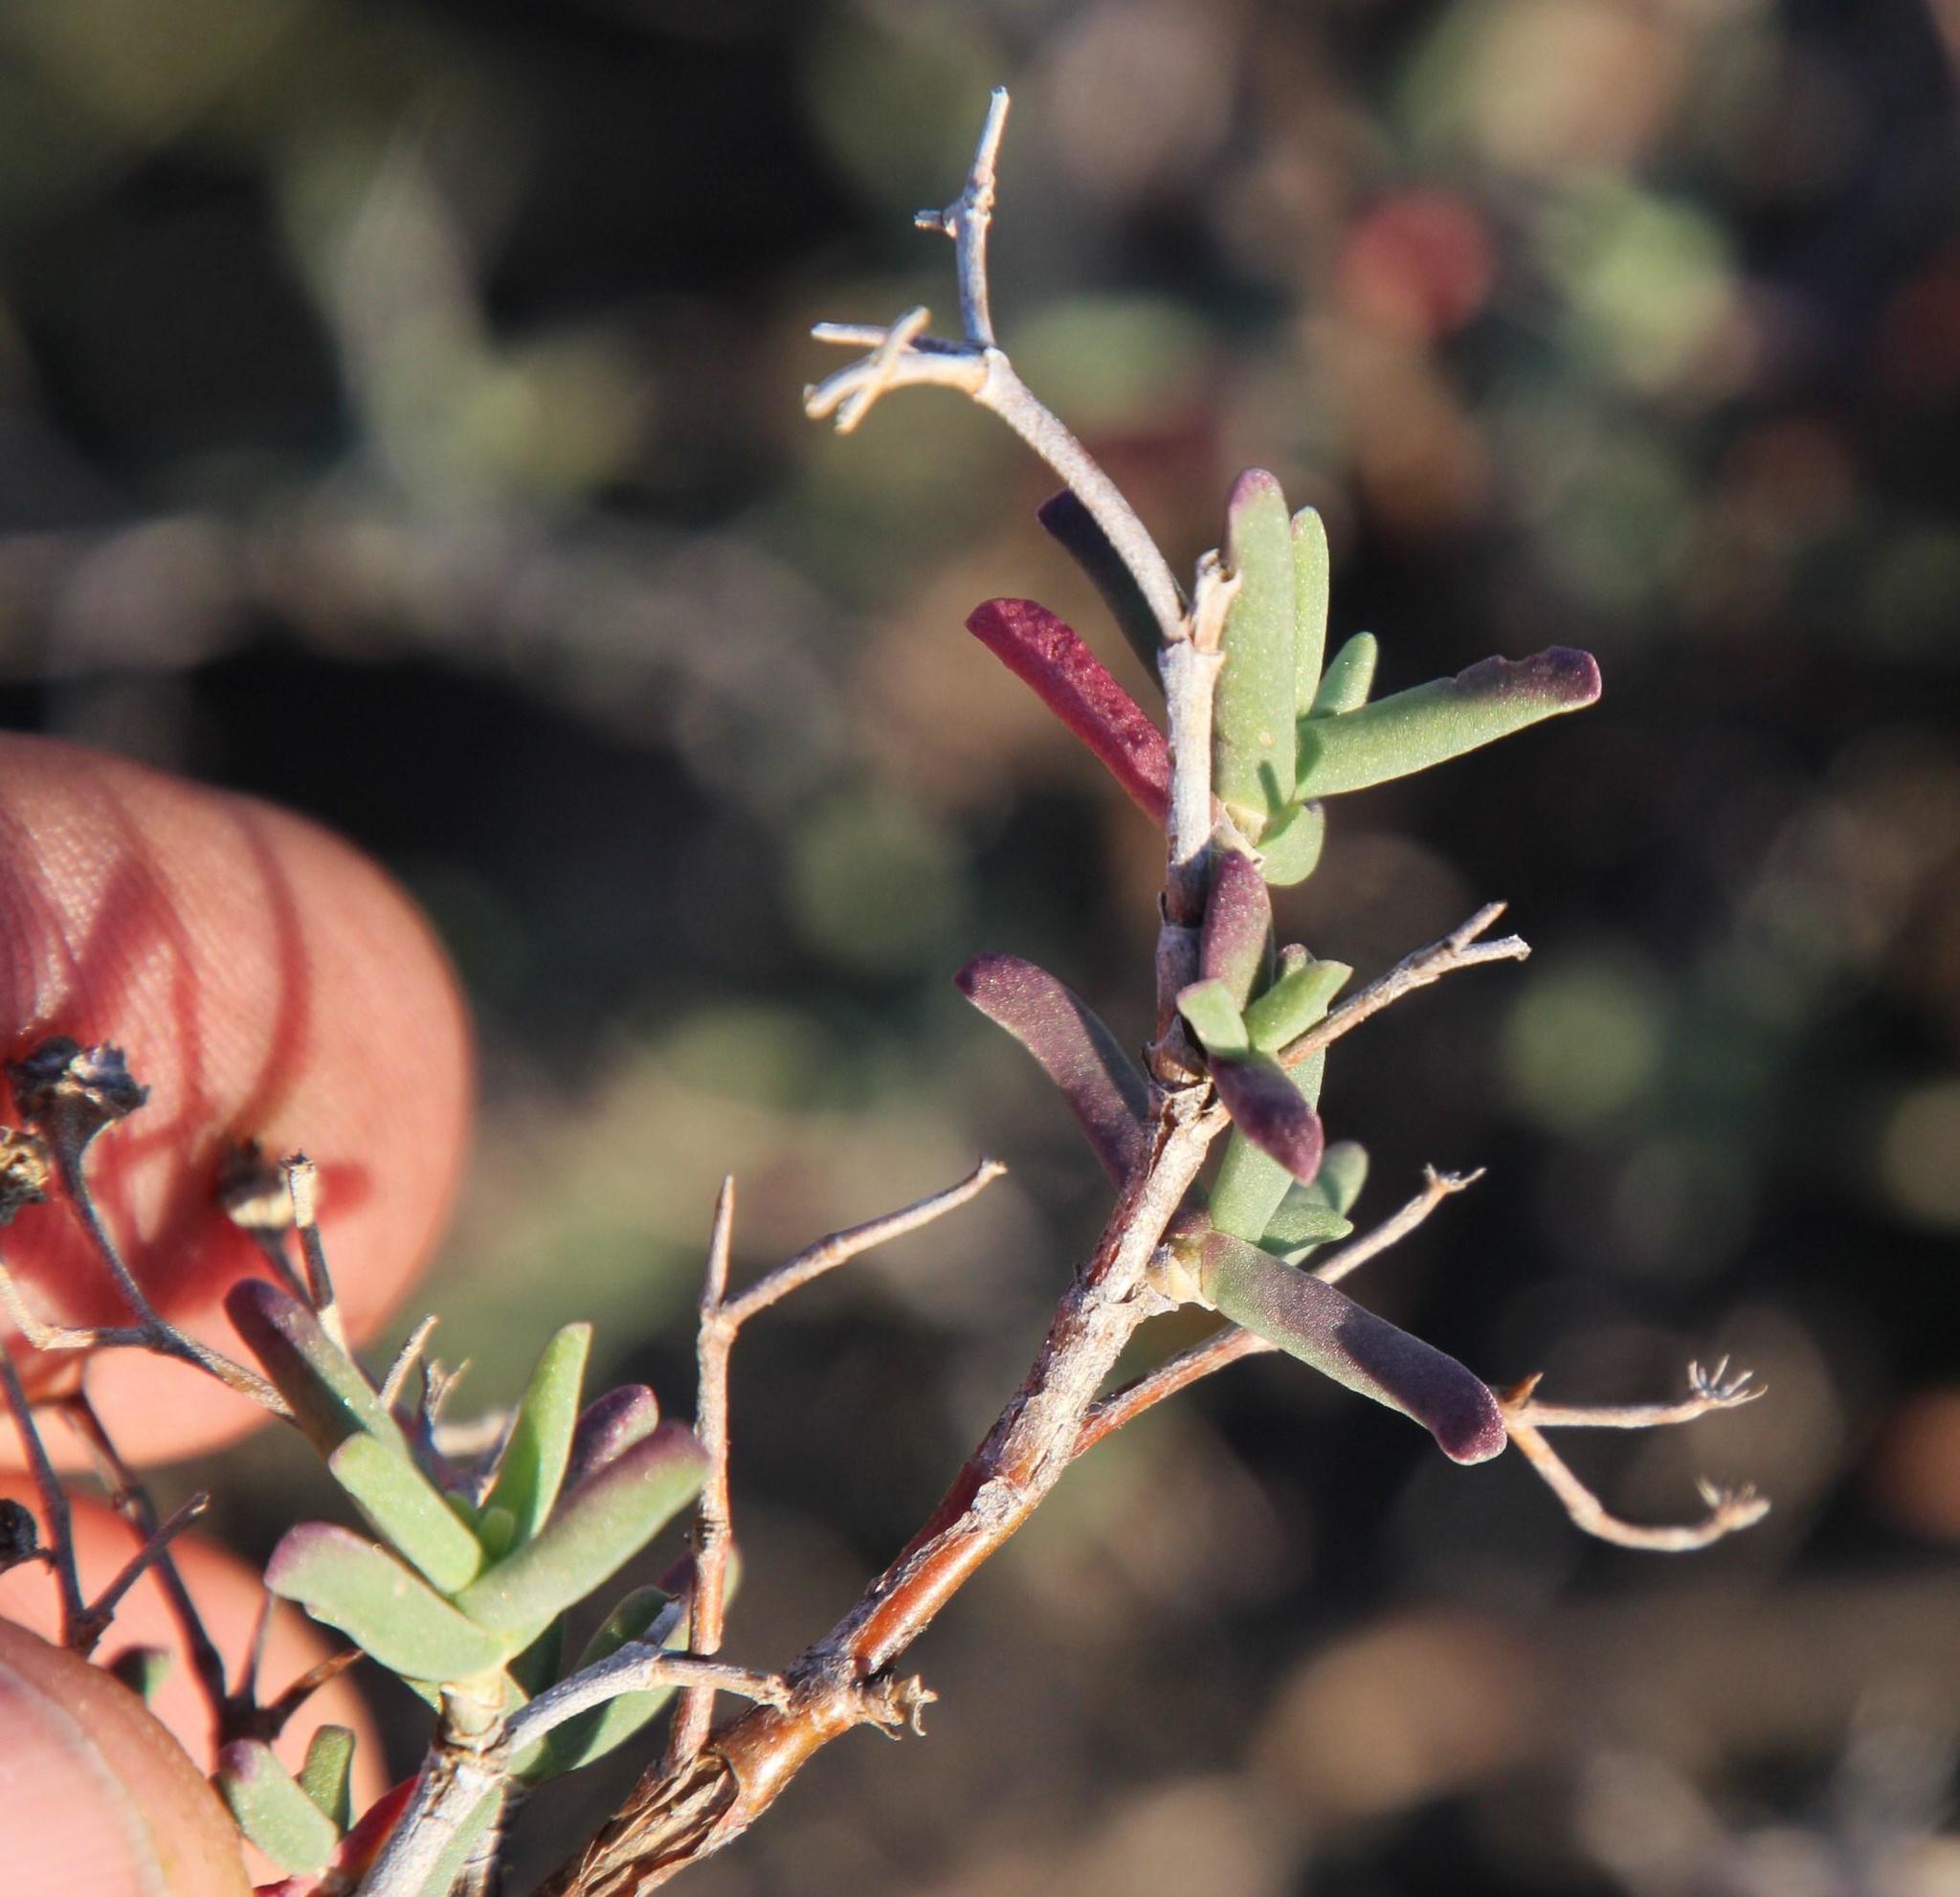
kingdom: Plantae
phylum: Tracheophyta
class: Magnoliopsida
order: Caryophyllales
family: Aizoaceae
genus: Mestoklema
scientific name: Mestoklema tuberosum
